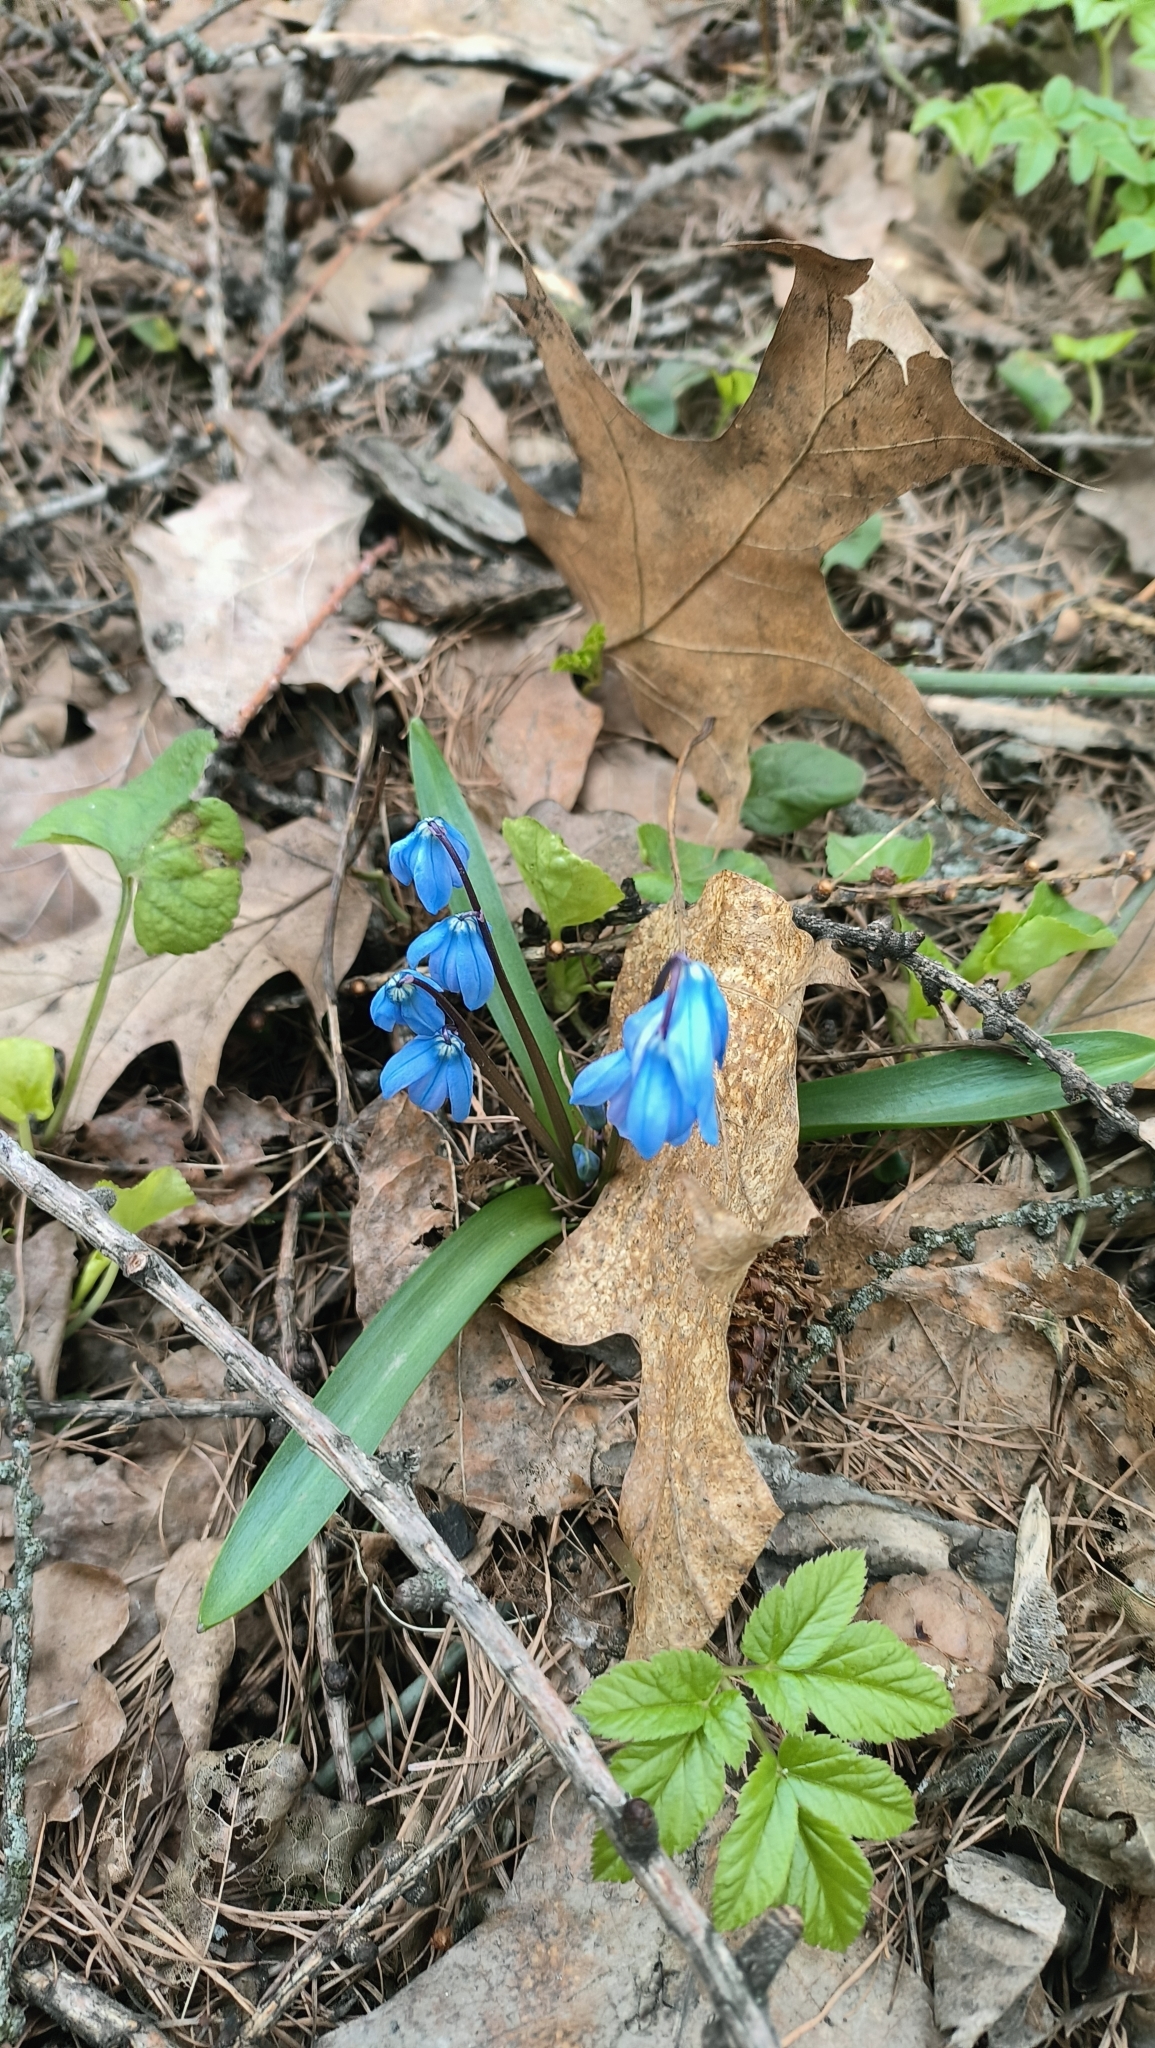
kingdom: Plantae
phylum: Tracheophyta
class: Liliopsida
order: Asparagales
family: Asparagaceae
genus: Scilla
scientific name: Scilla siberica
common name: Siberian squill
